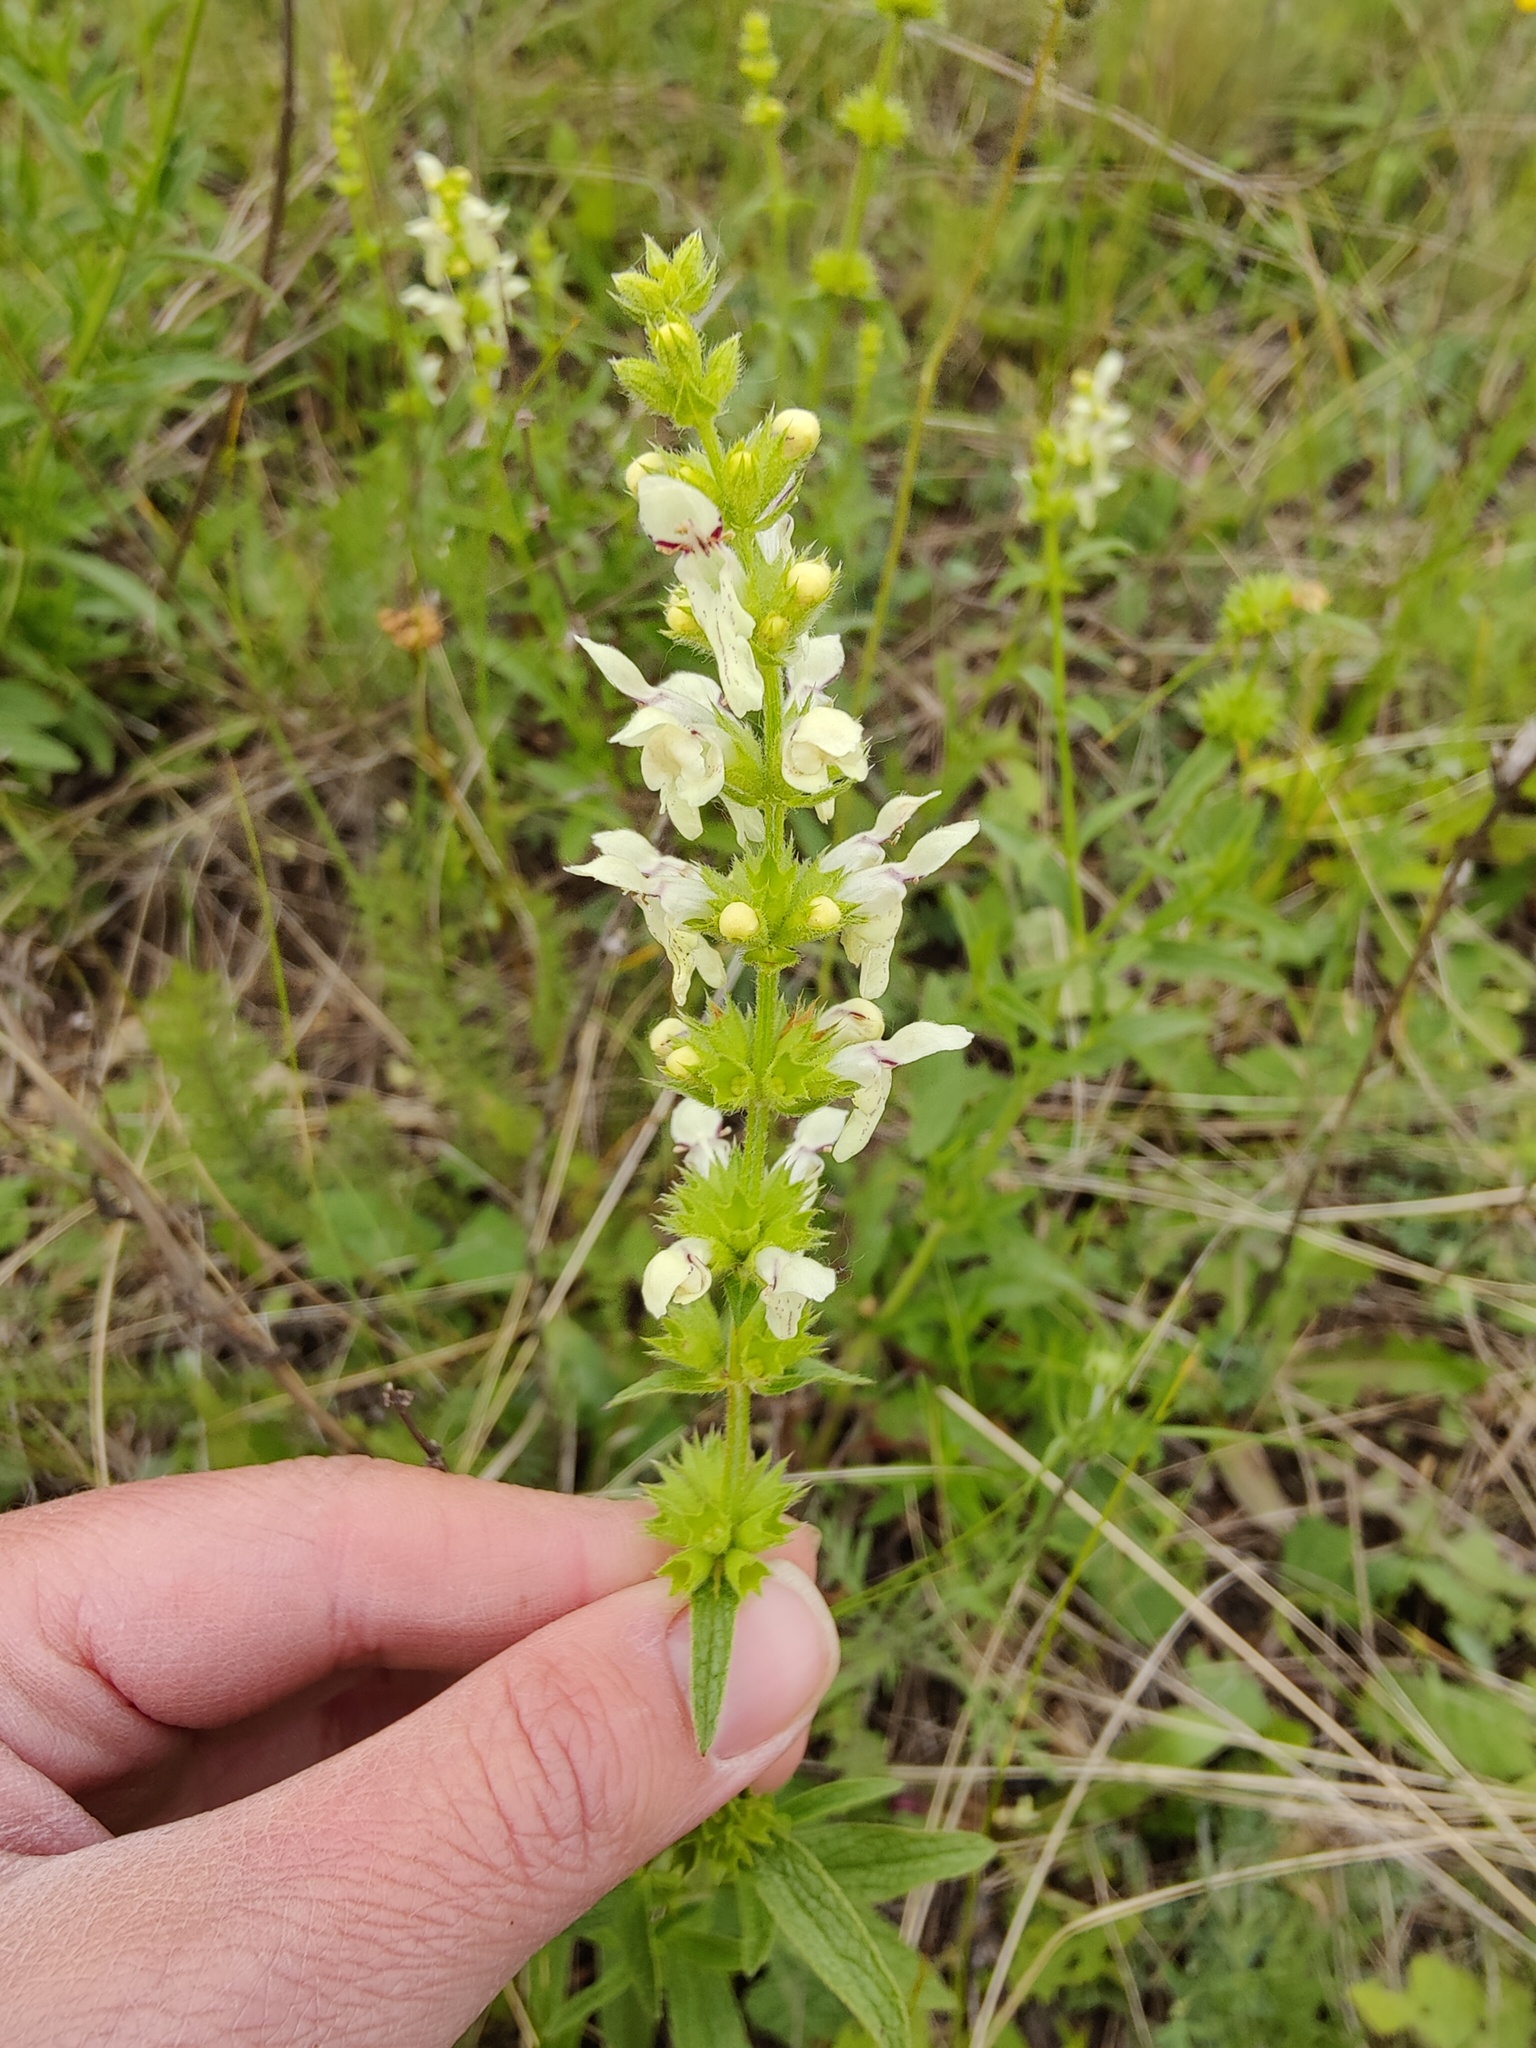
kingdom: Plantae
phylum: Tracheophyta
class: Magnoliopsida
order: Lamiales
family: Lamiaceae
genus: Stachys
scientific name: Stachys recta
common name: Perennial yellow-woundwort
